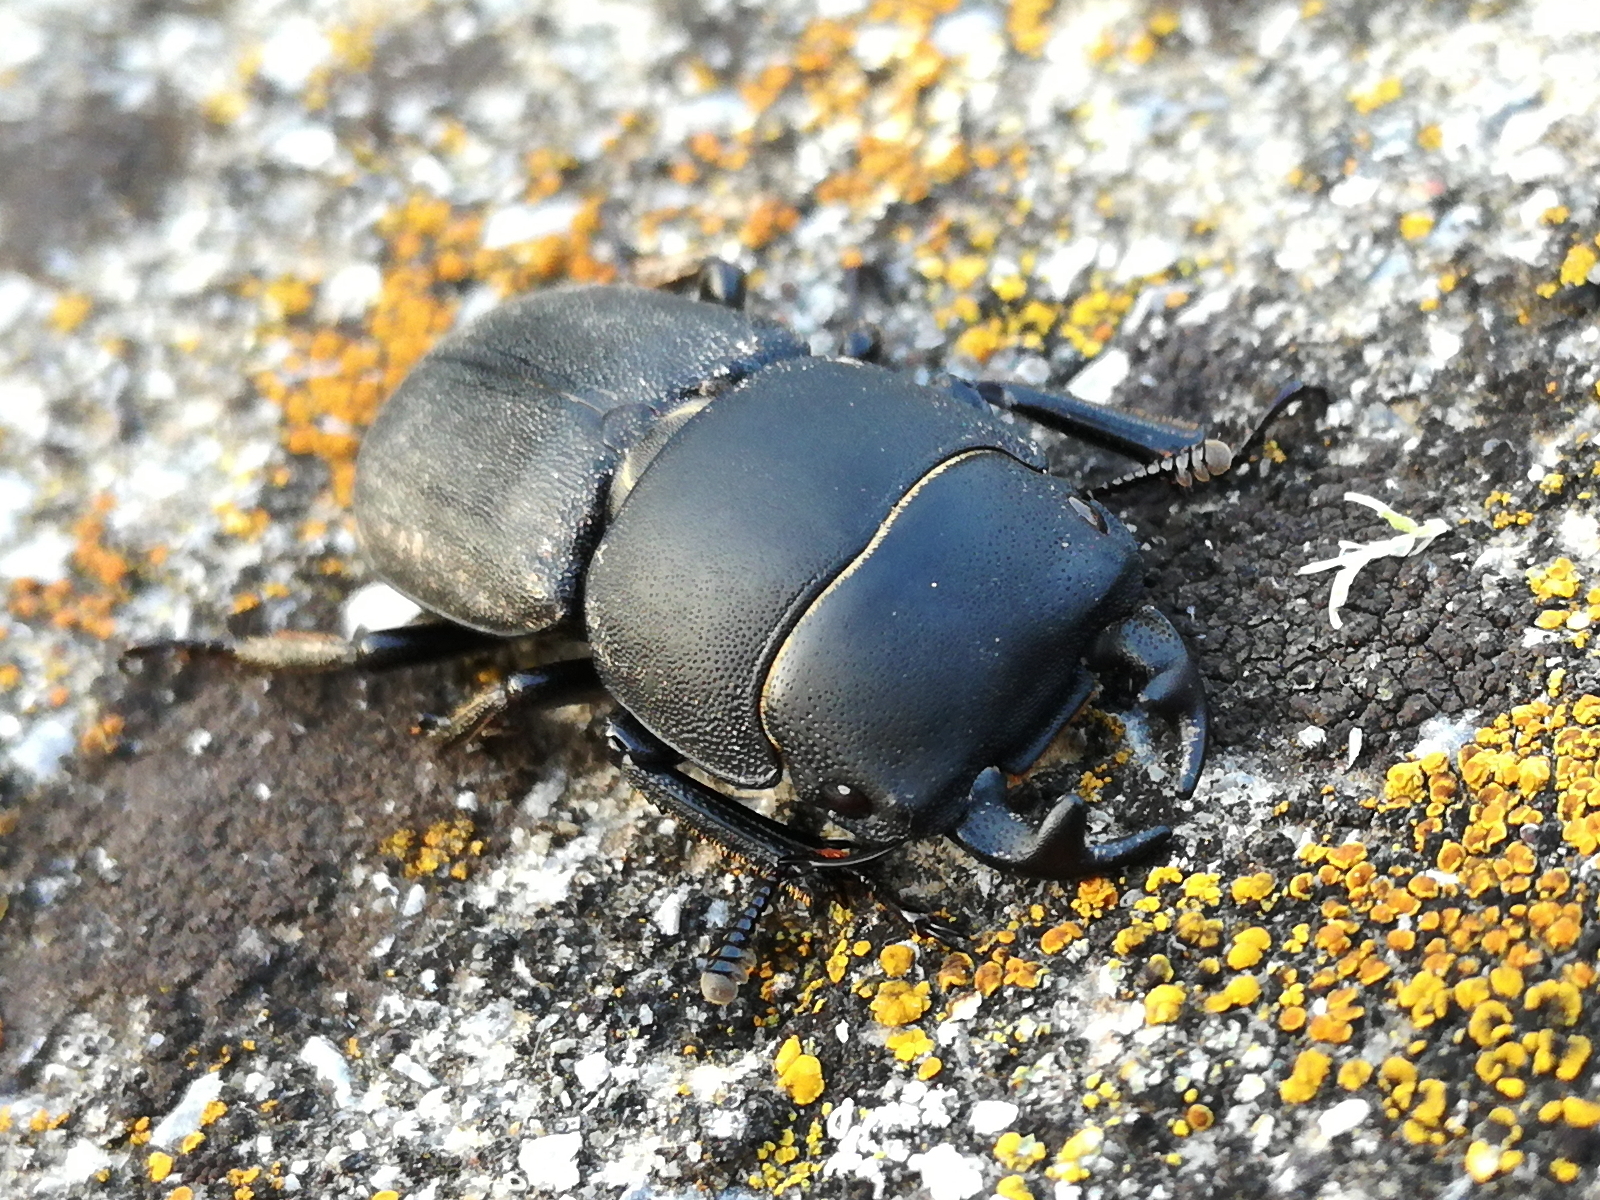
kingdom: Animalia
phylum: Arthropoda
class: Insecta
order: Coleoptera
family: Lucanidae
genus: Dorcus
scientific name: Dorcus parallelipipedus
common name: Lesser stag beetle
